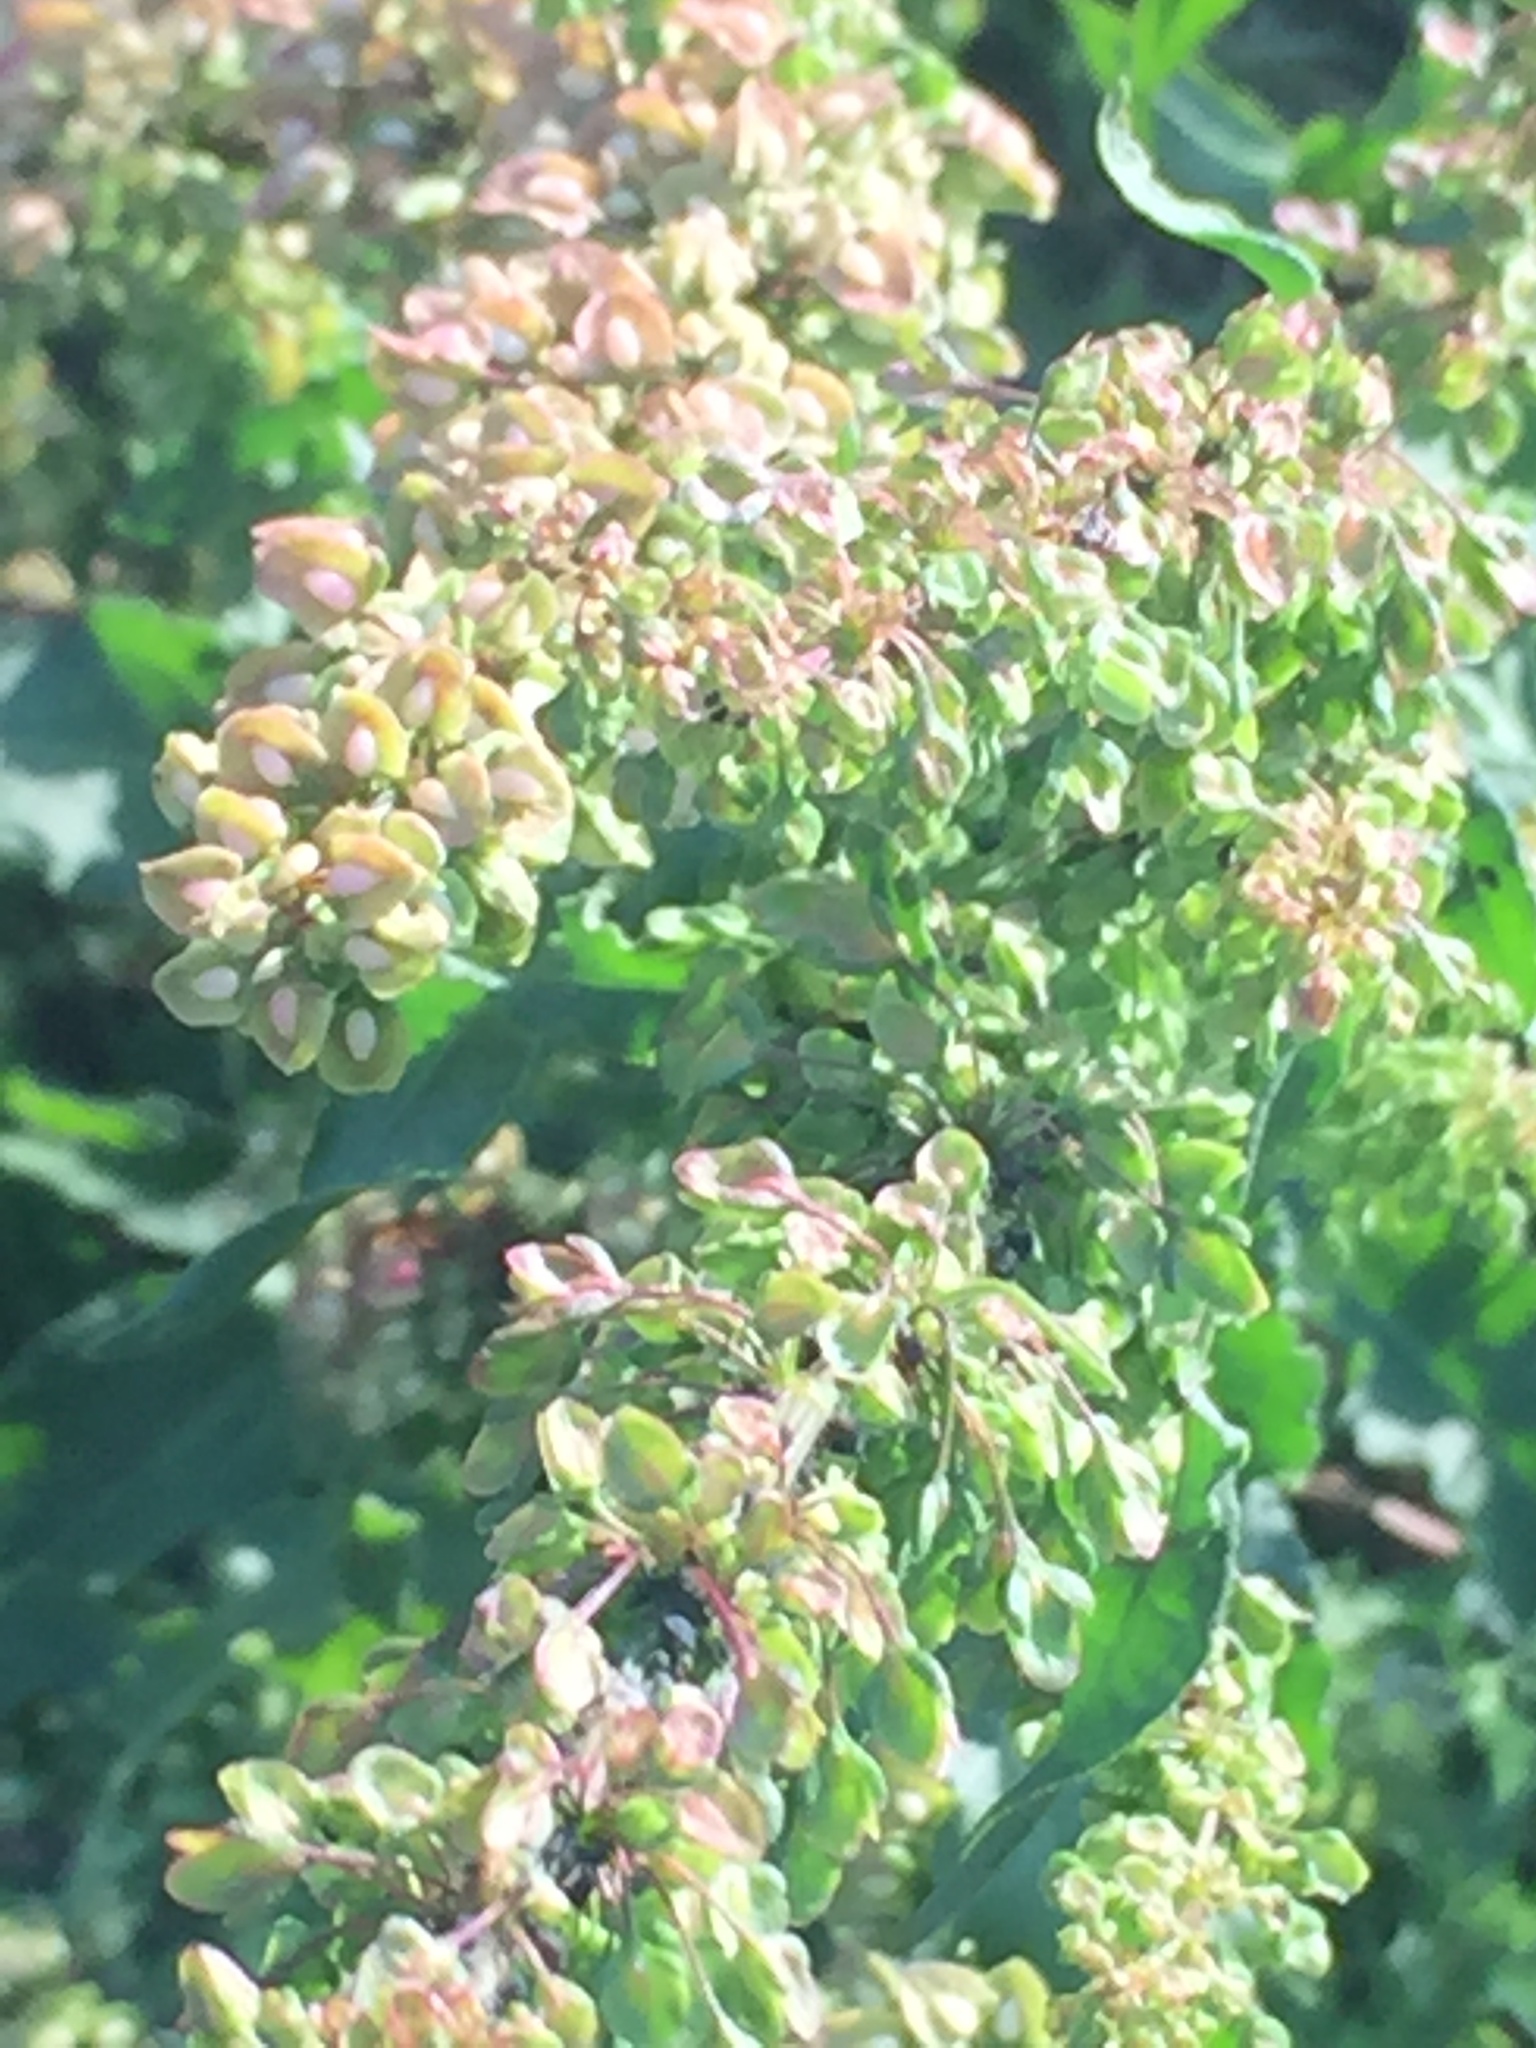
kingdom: Plantae
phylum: Tracheophyta
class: Magnoliopsida
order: Caryophyllales
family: Polygonaceae
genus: Rumex
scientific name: Rumex crispus
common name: Curled dock
